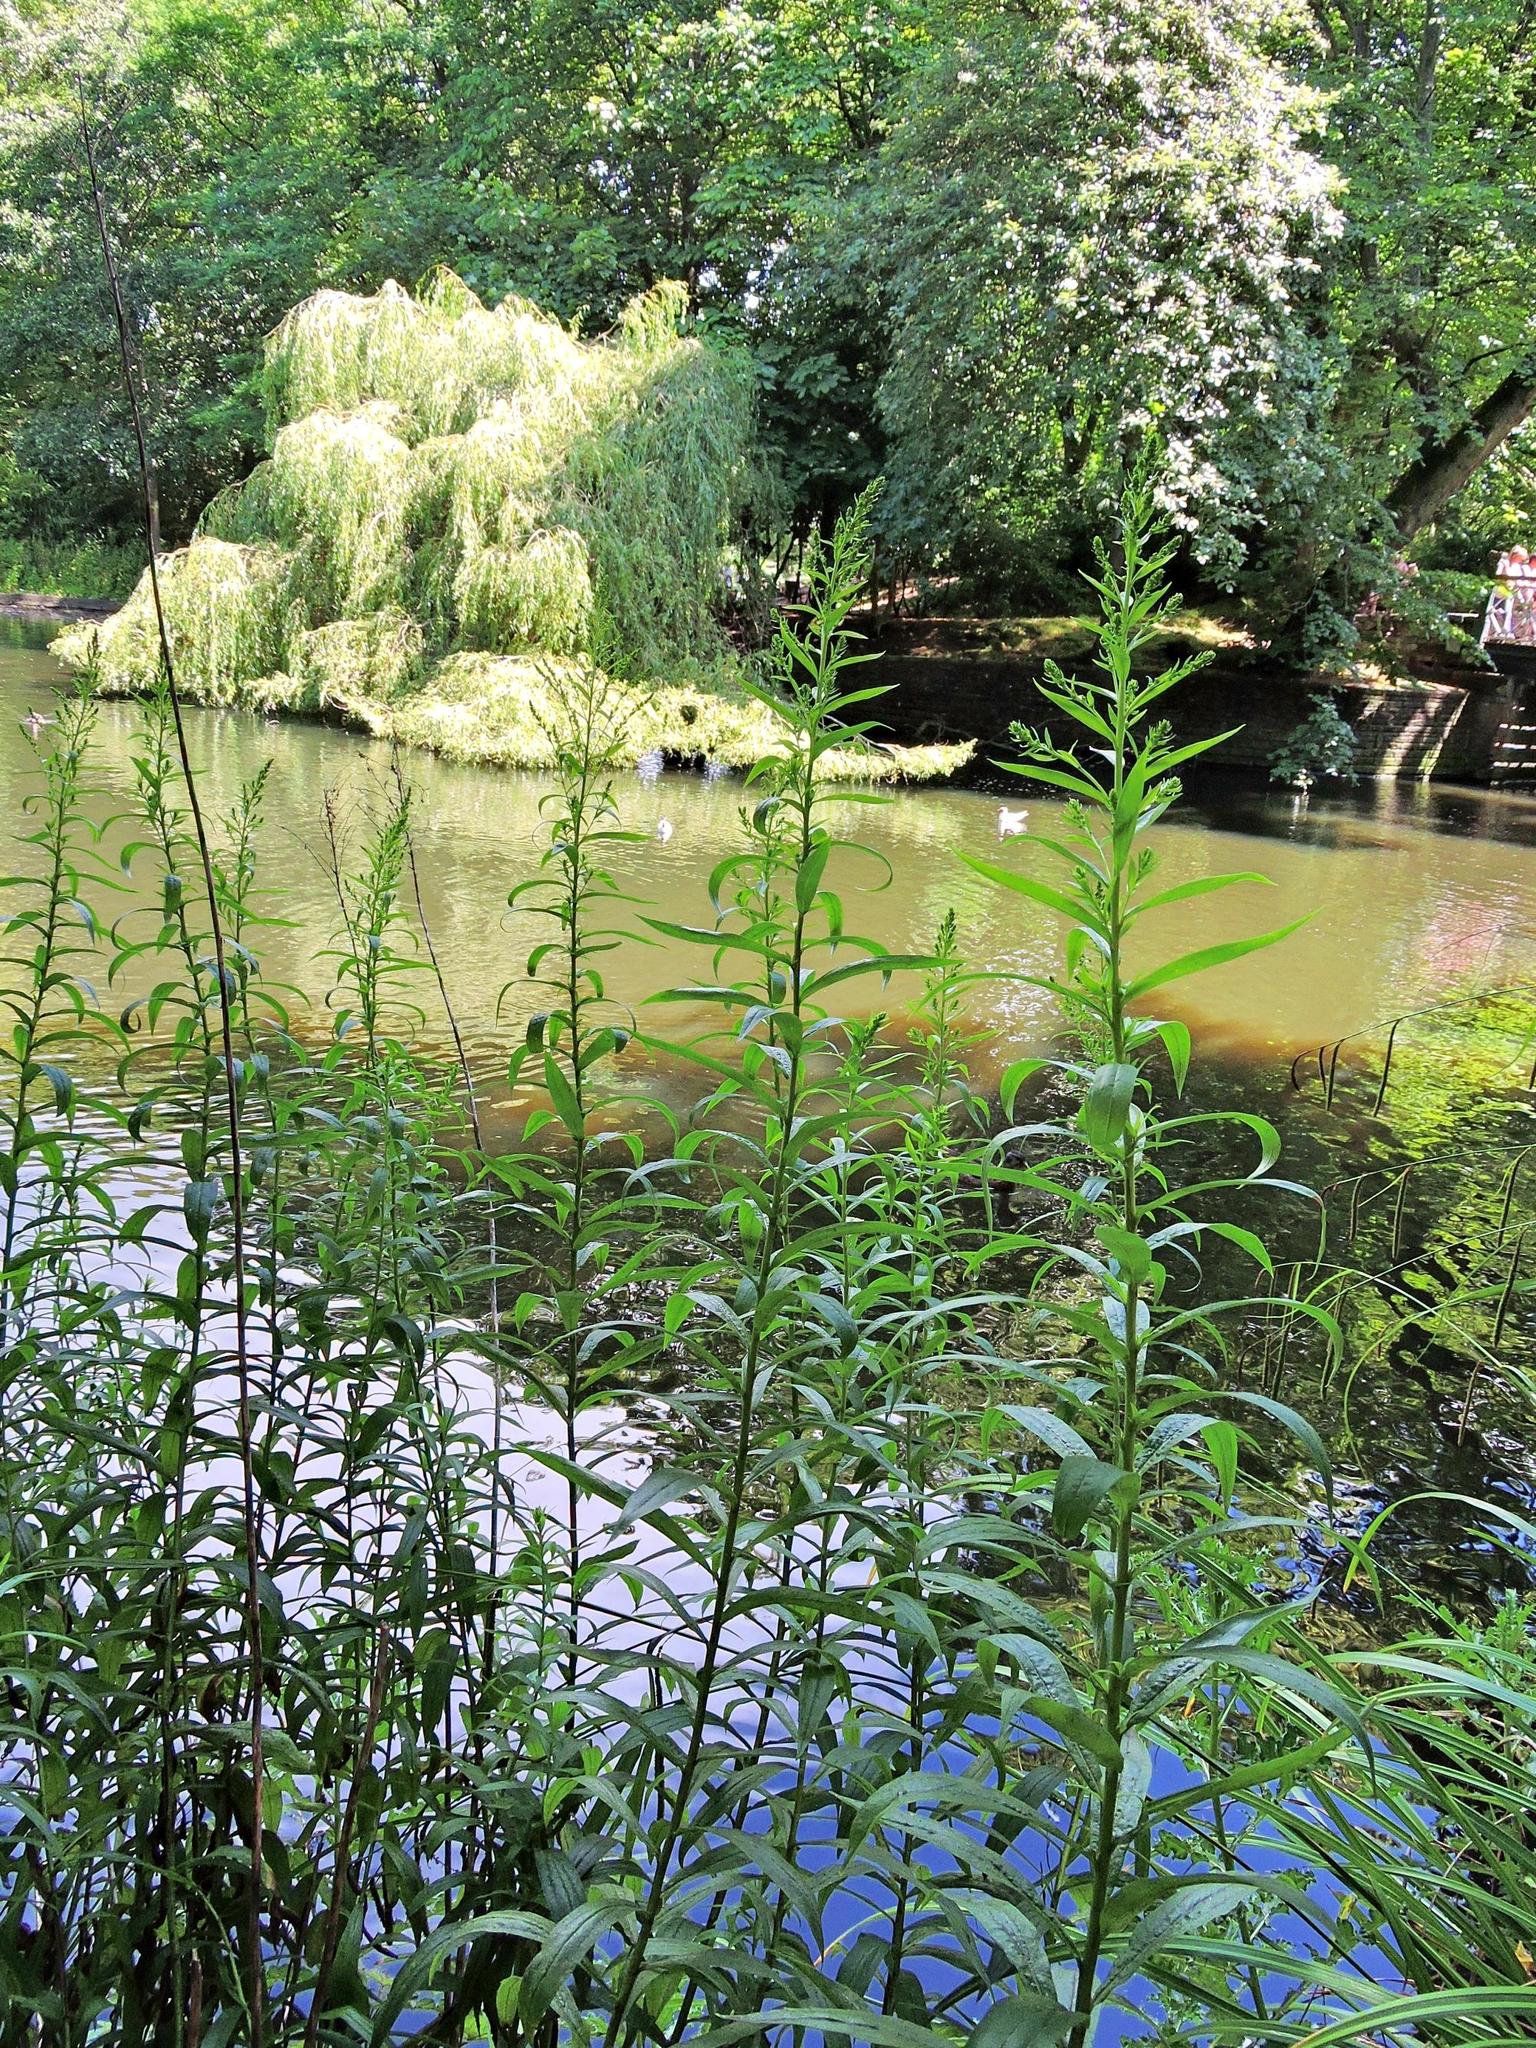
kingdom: Plantae
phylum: Tracheophyta
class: Magnoliopsida
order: Asterales
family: Asteraceae
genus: Solidago
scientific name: Solidago canadensis
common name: Canada goldenrod
